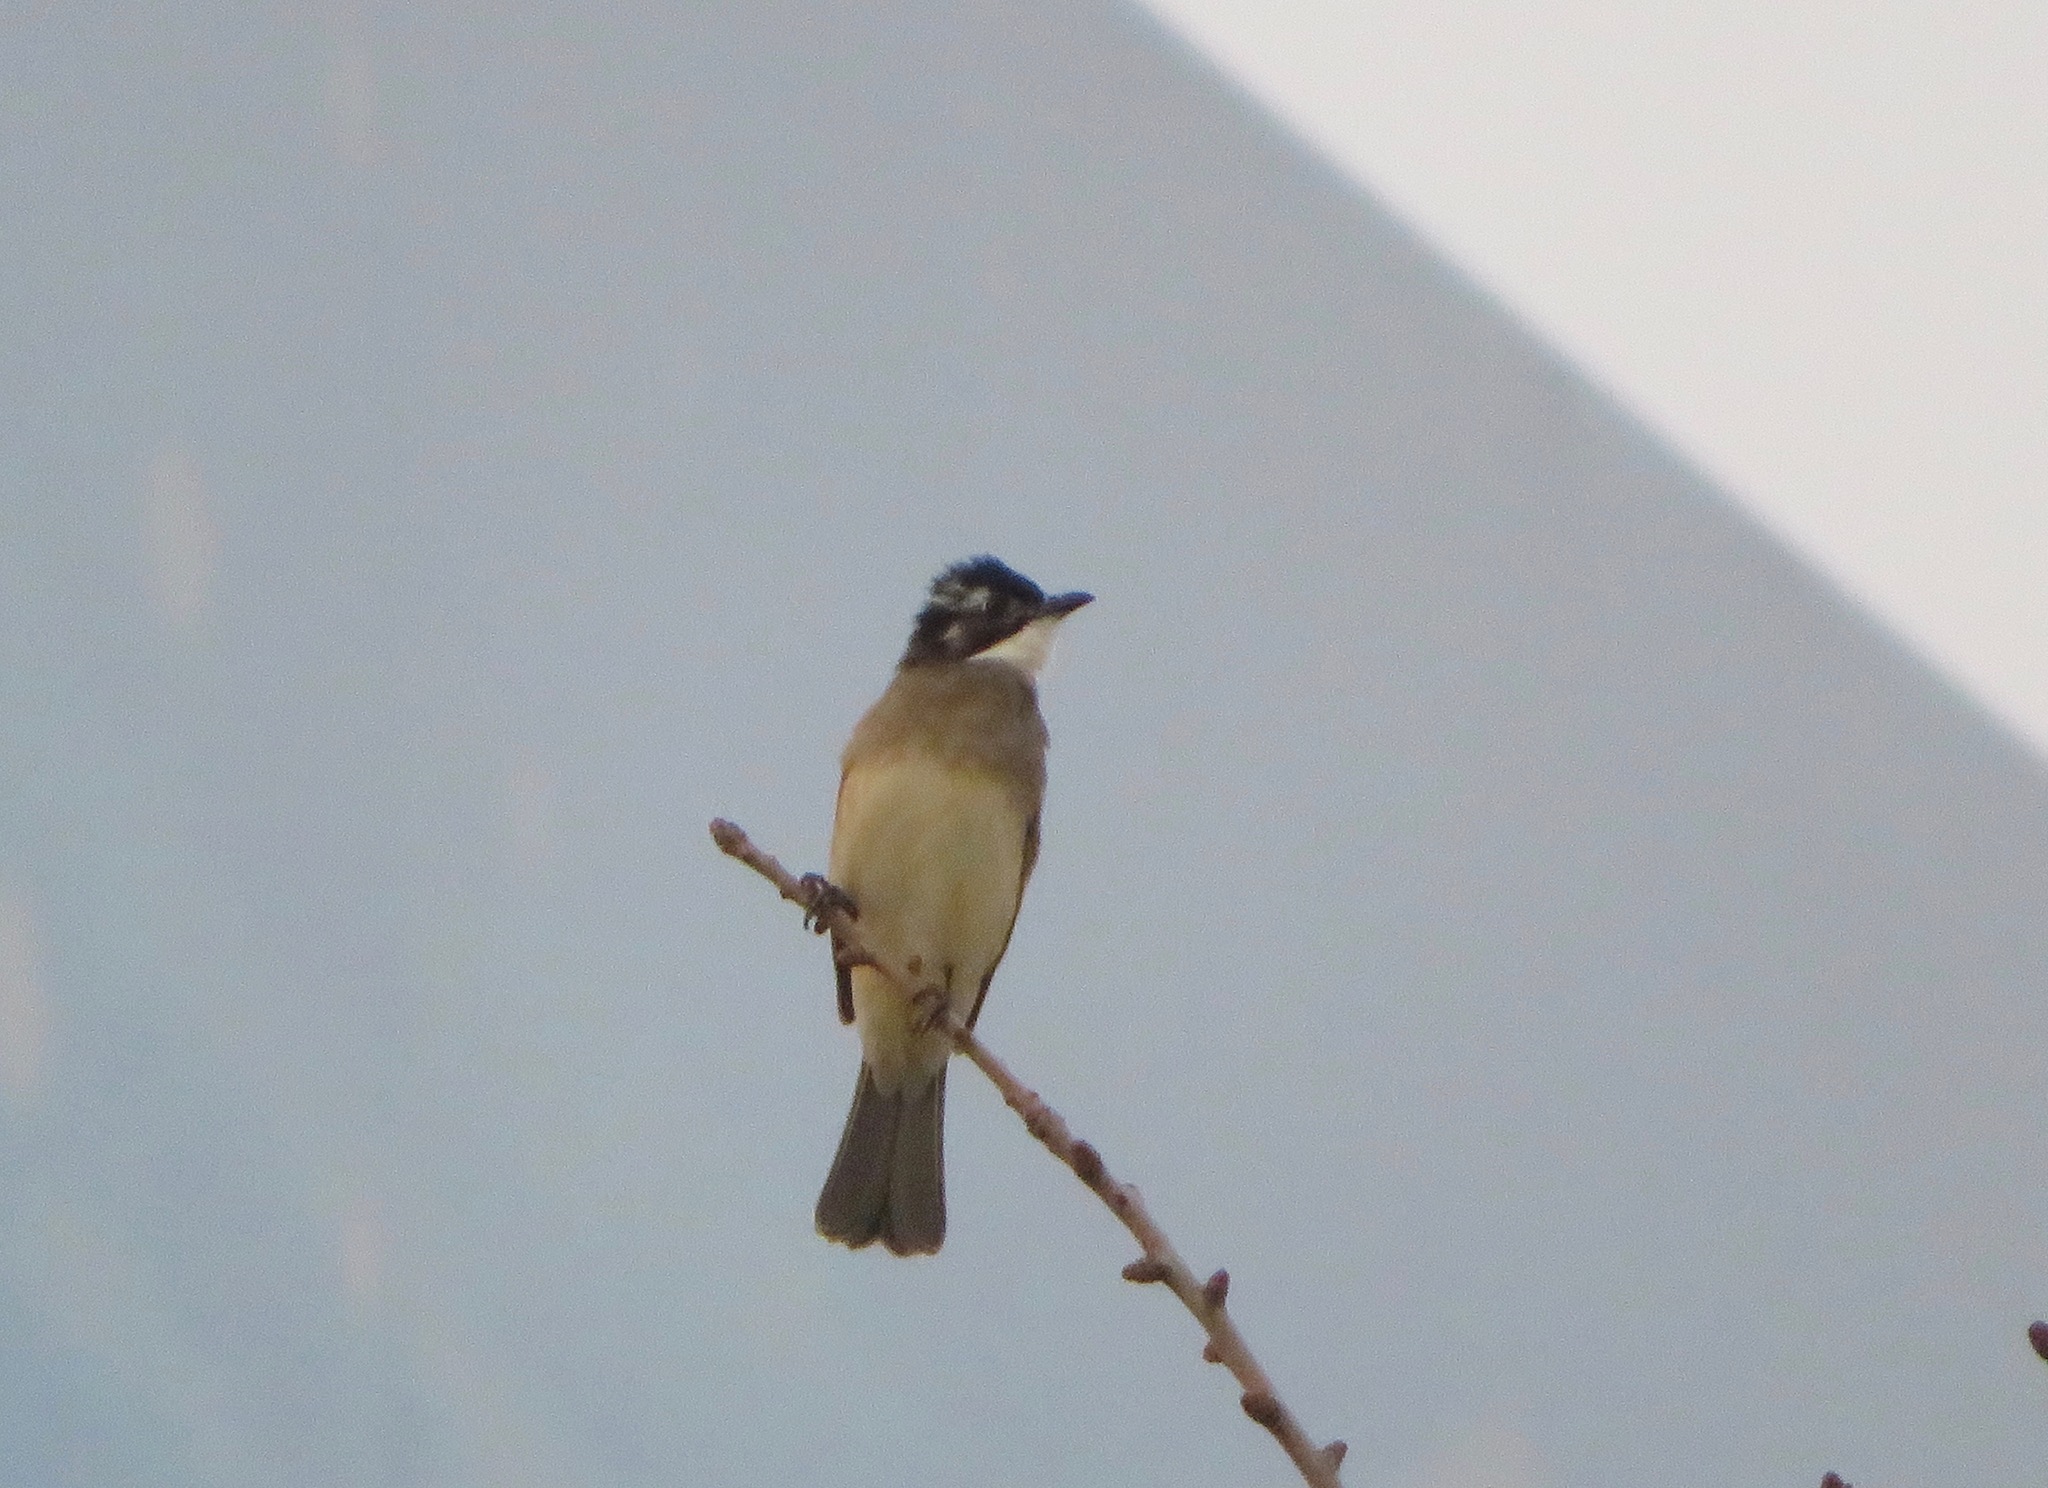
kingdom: Animalia
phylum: Chordata
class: Aves
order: Passeriformes
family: Pycnonotidae
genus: Pycnonotus
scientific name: Pycnonotus sinensis
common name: Light-vented bulbul
